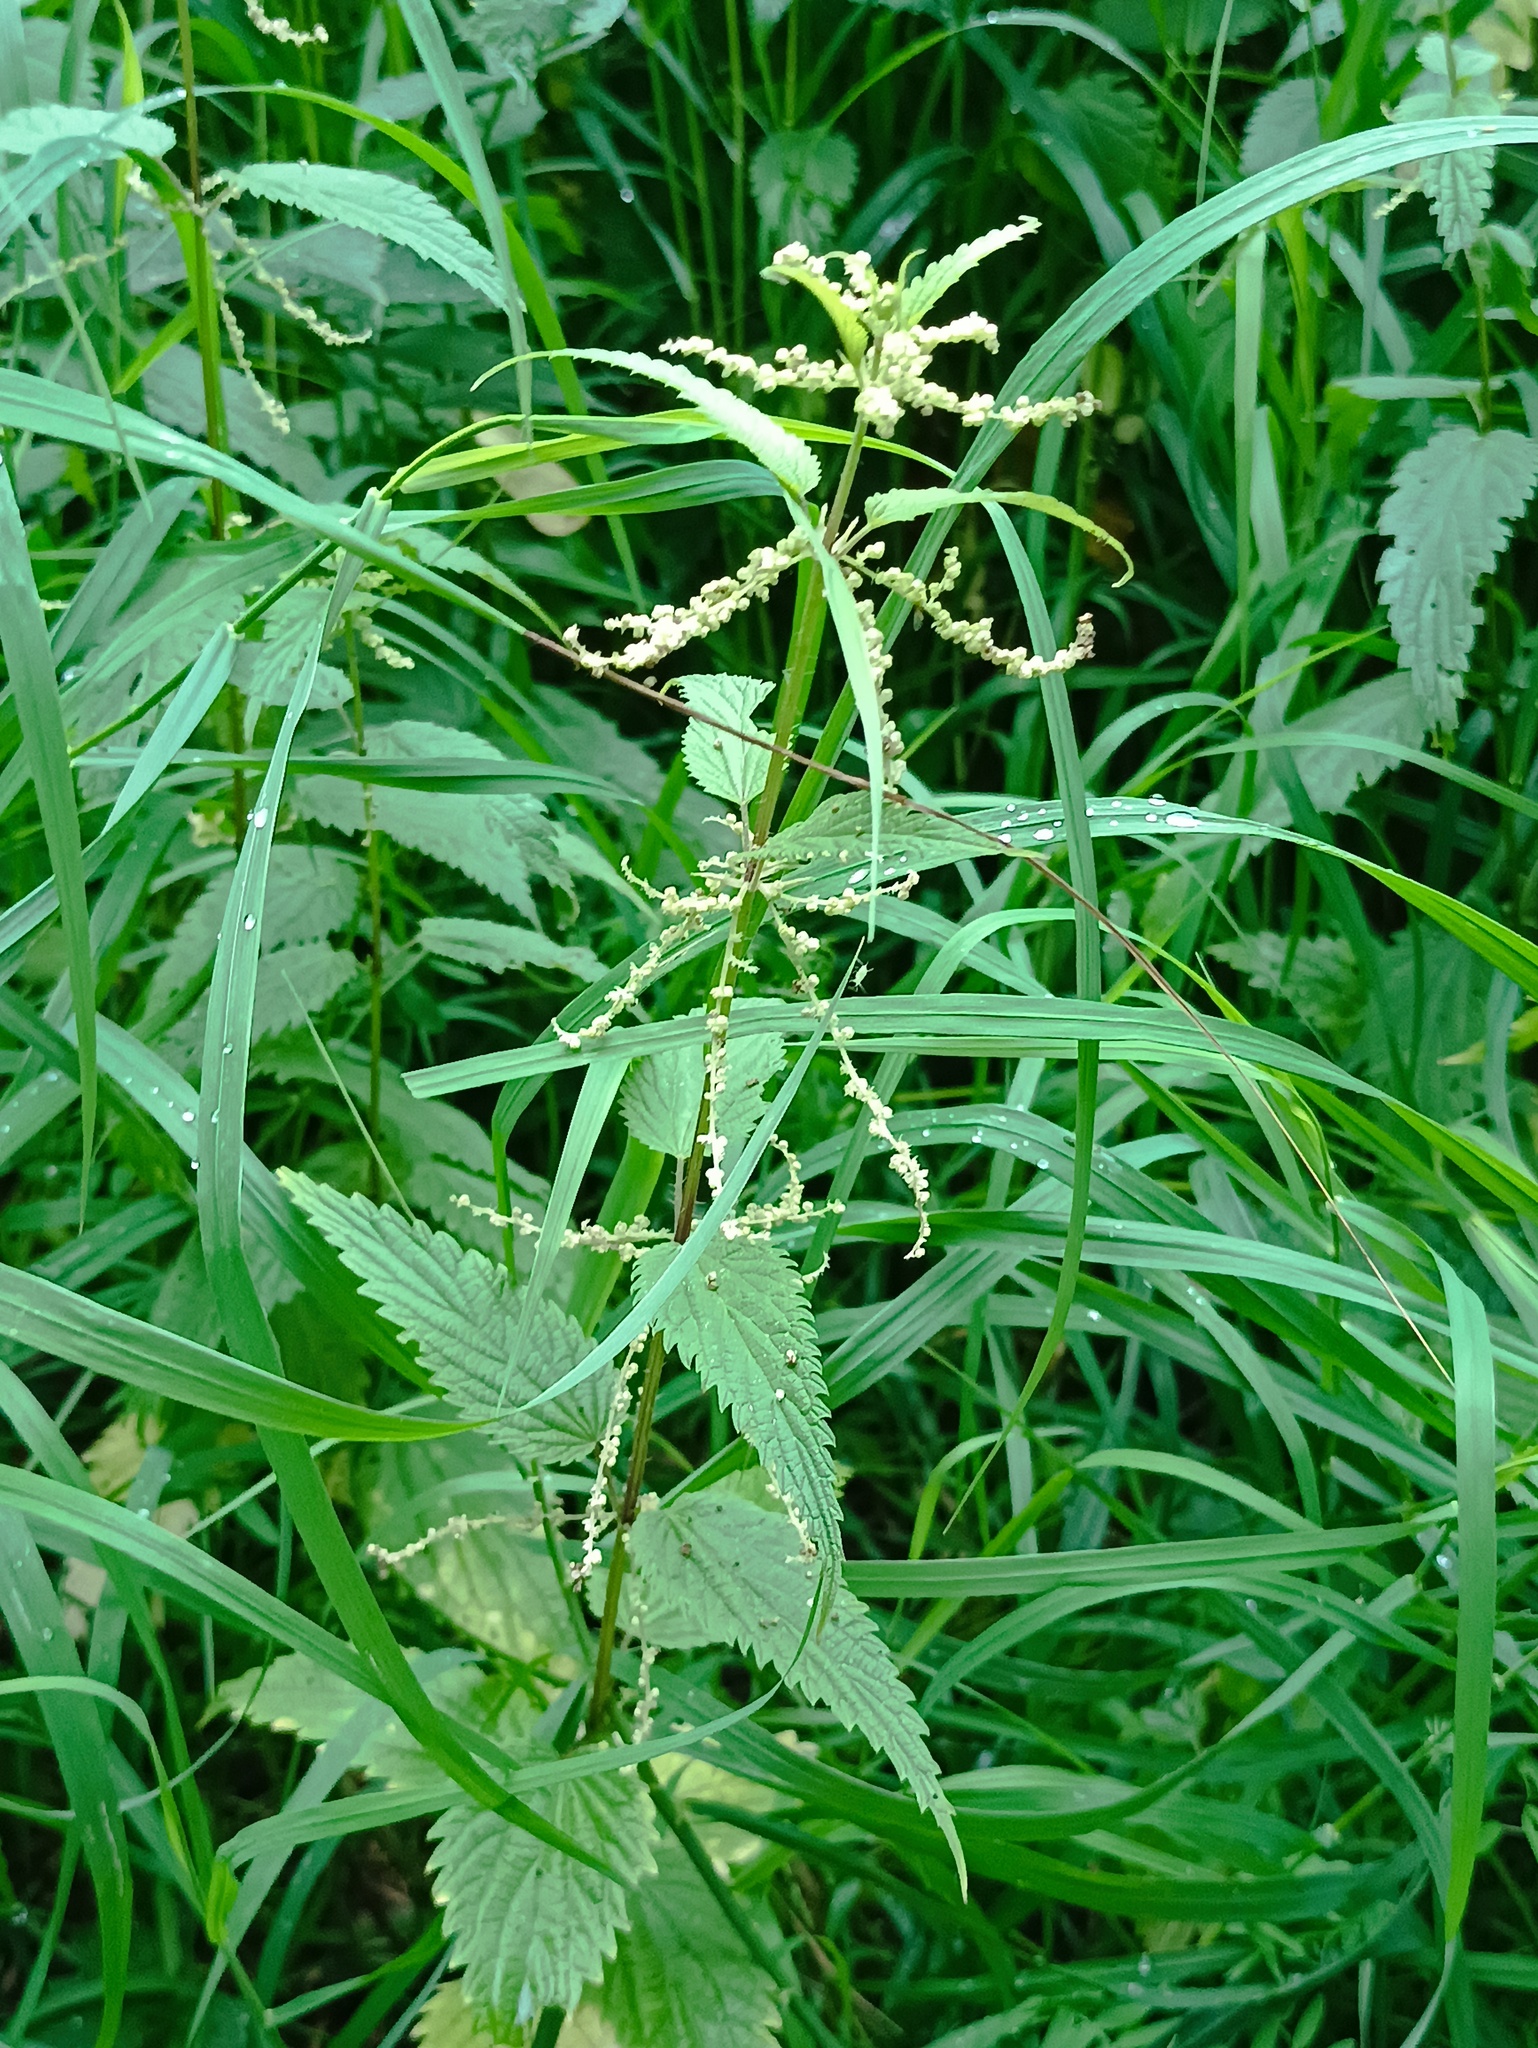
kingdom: Plantae
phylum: Tracheophyta
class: Magnoliopsida
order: Rosales
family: Urticaceae
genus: Urtica
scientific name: Urtica dioica
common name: Common nettle
